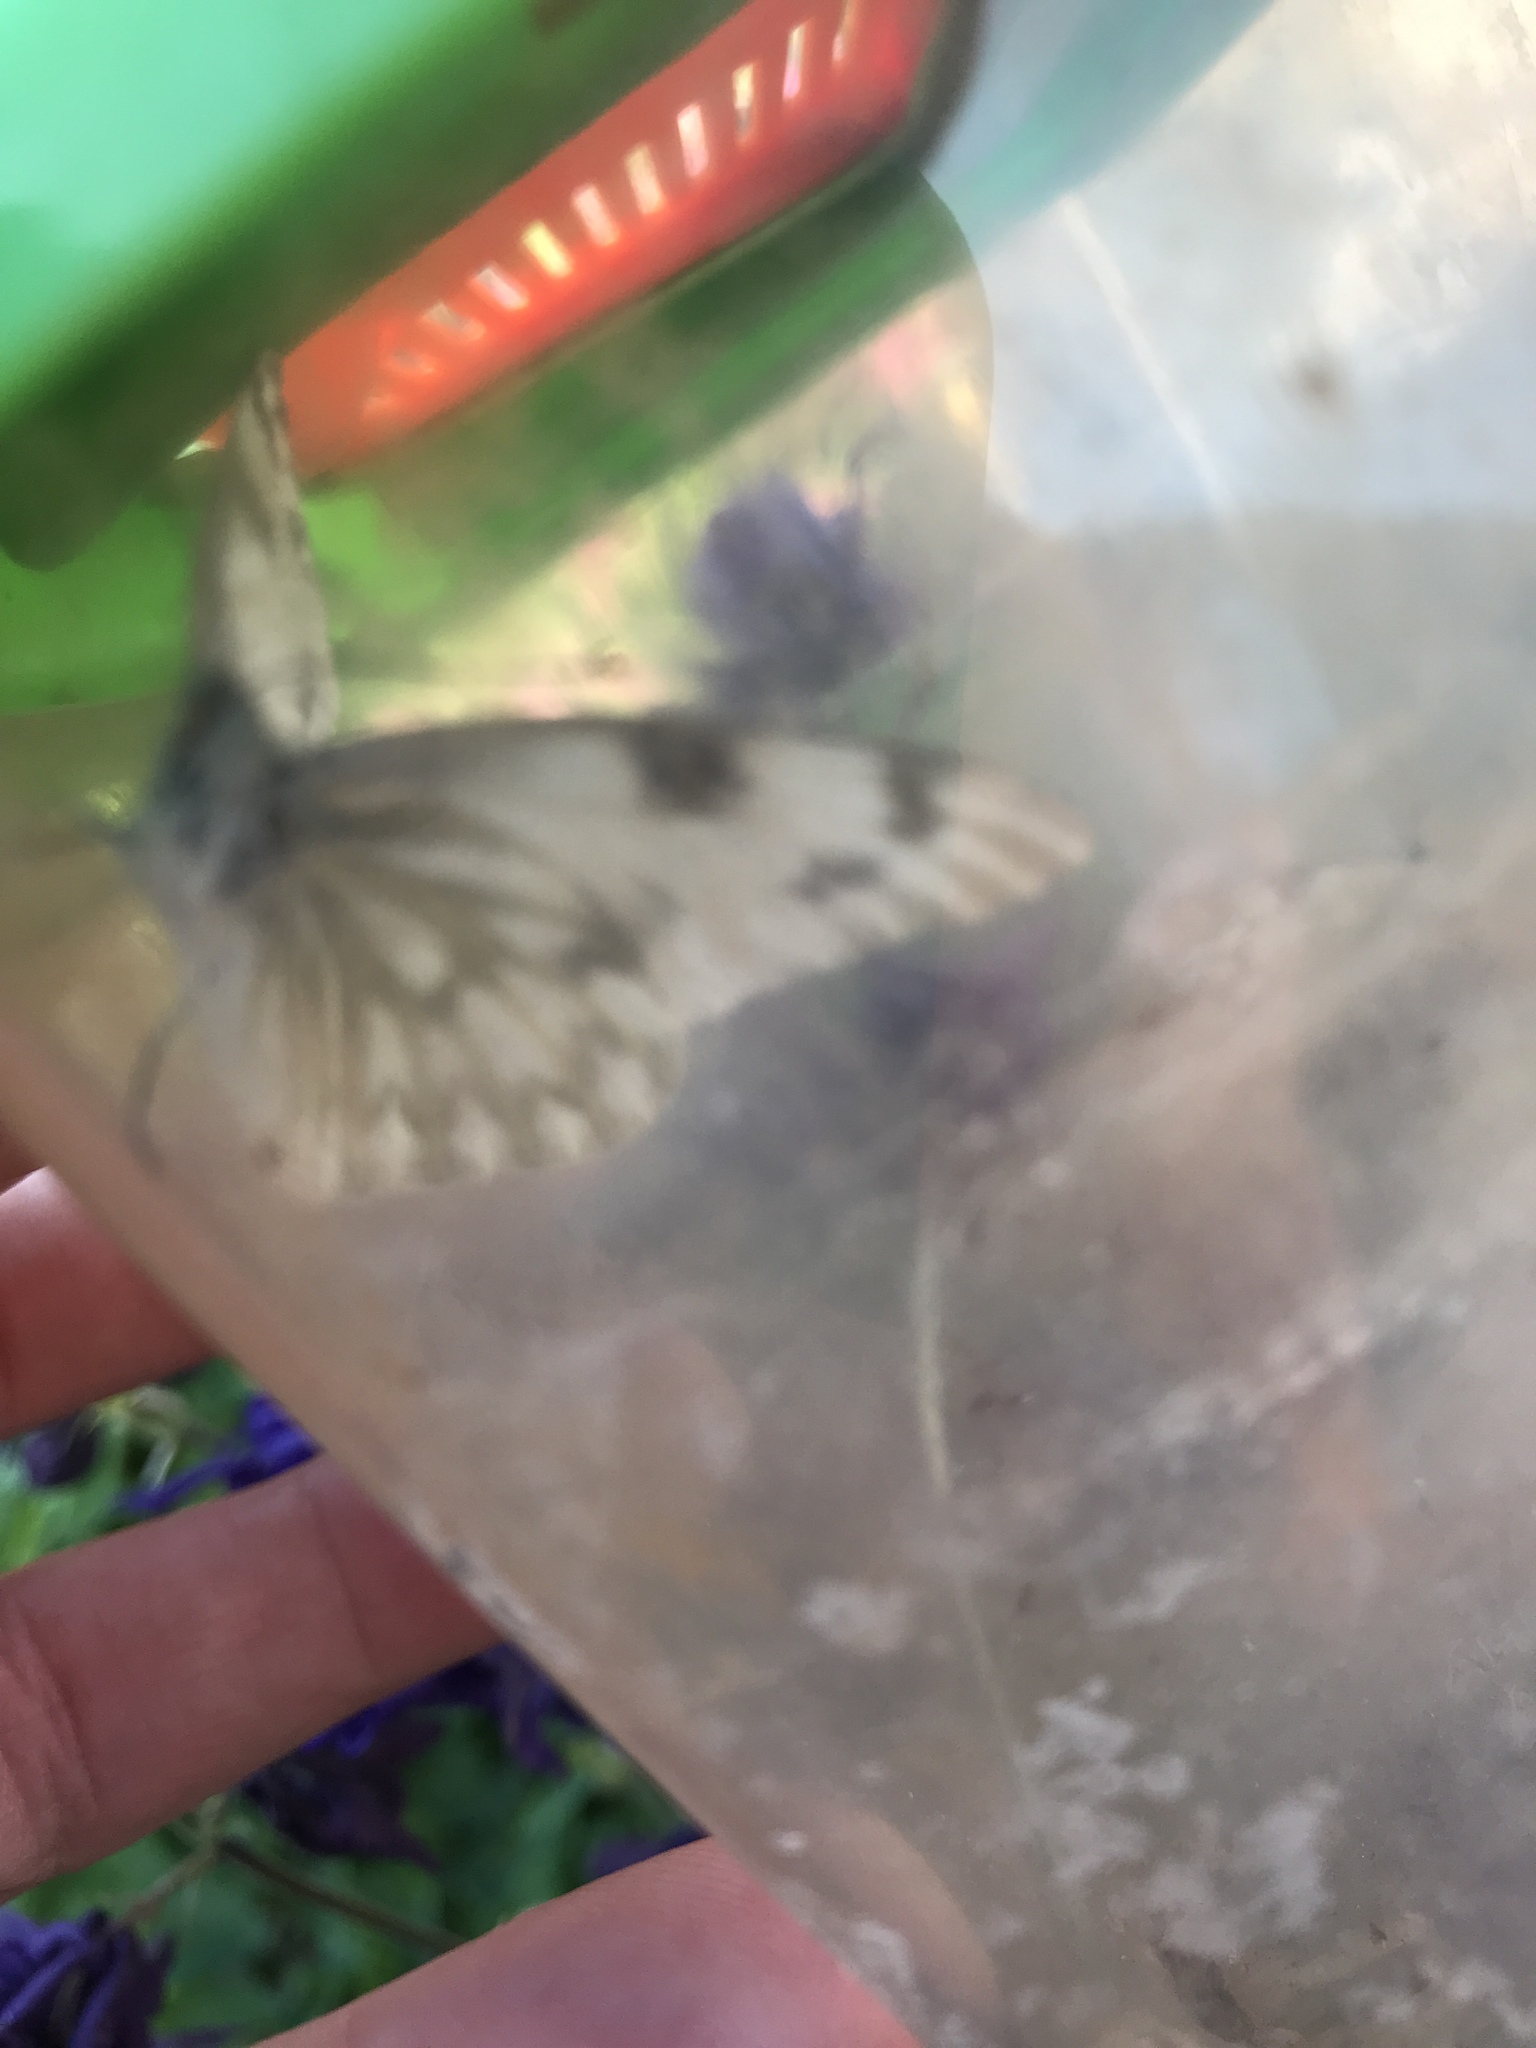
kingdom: Animalia
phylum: Arthropoda
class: Insecta
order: Lepidoptera
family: Pieridae
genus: Pontia
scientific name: Pontia protodice
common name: Checkered white
